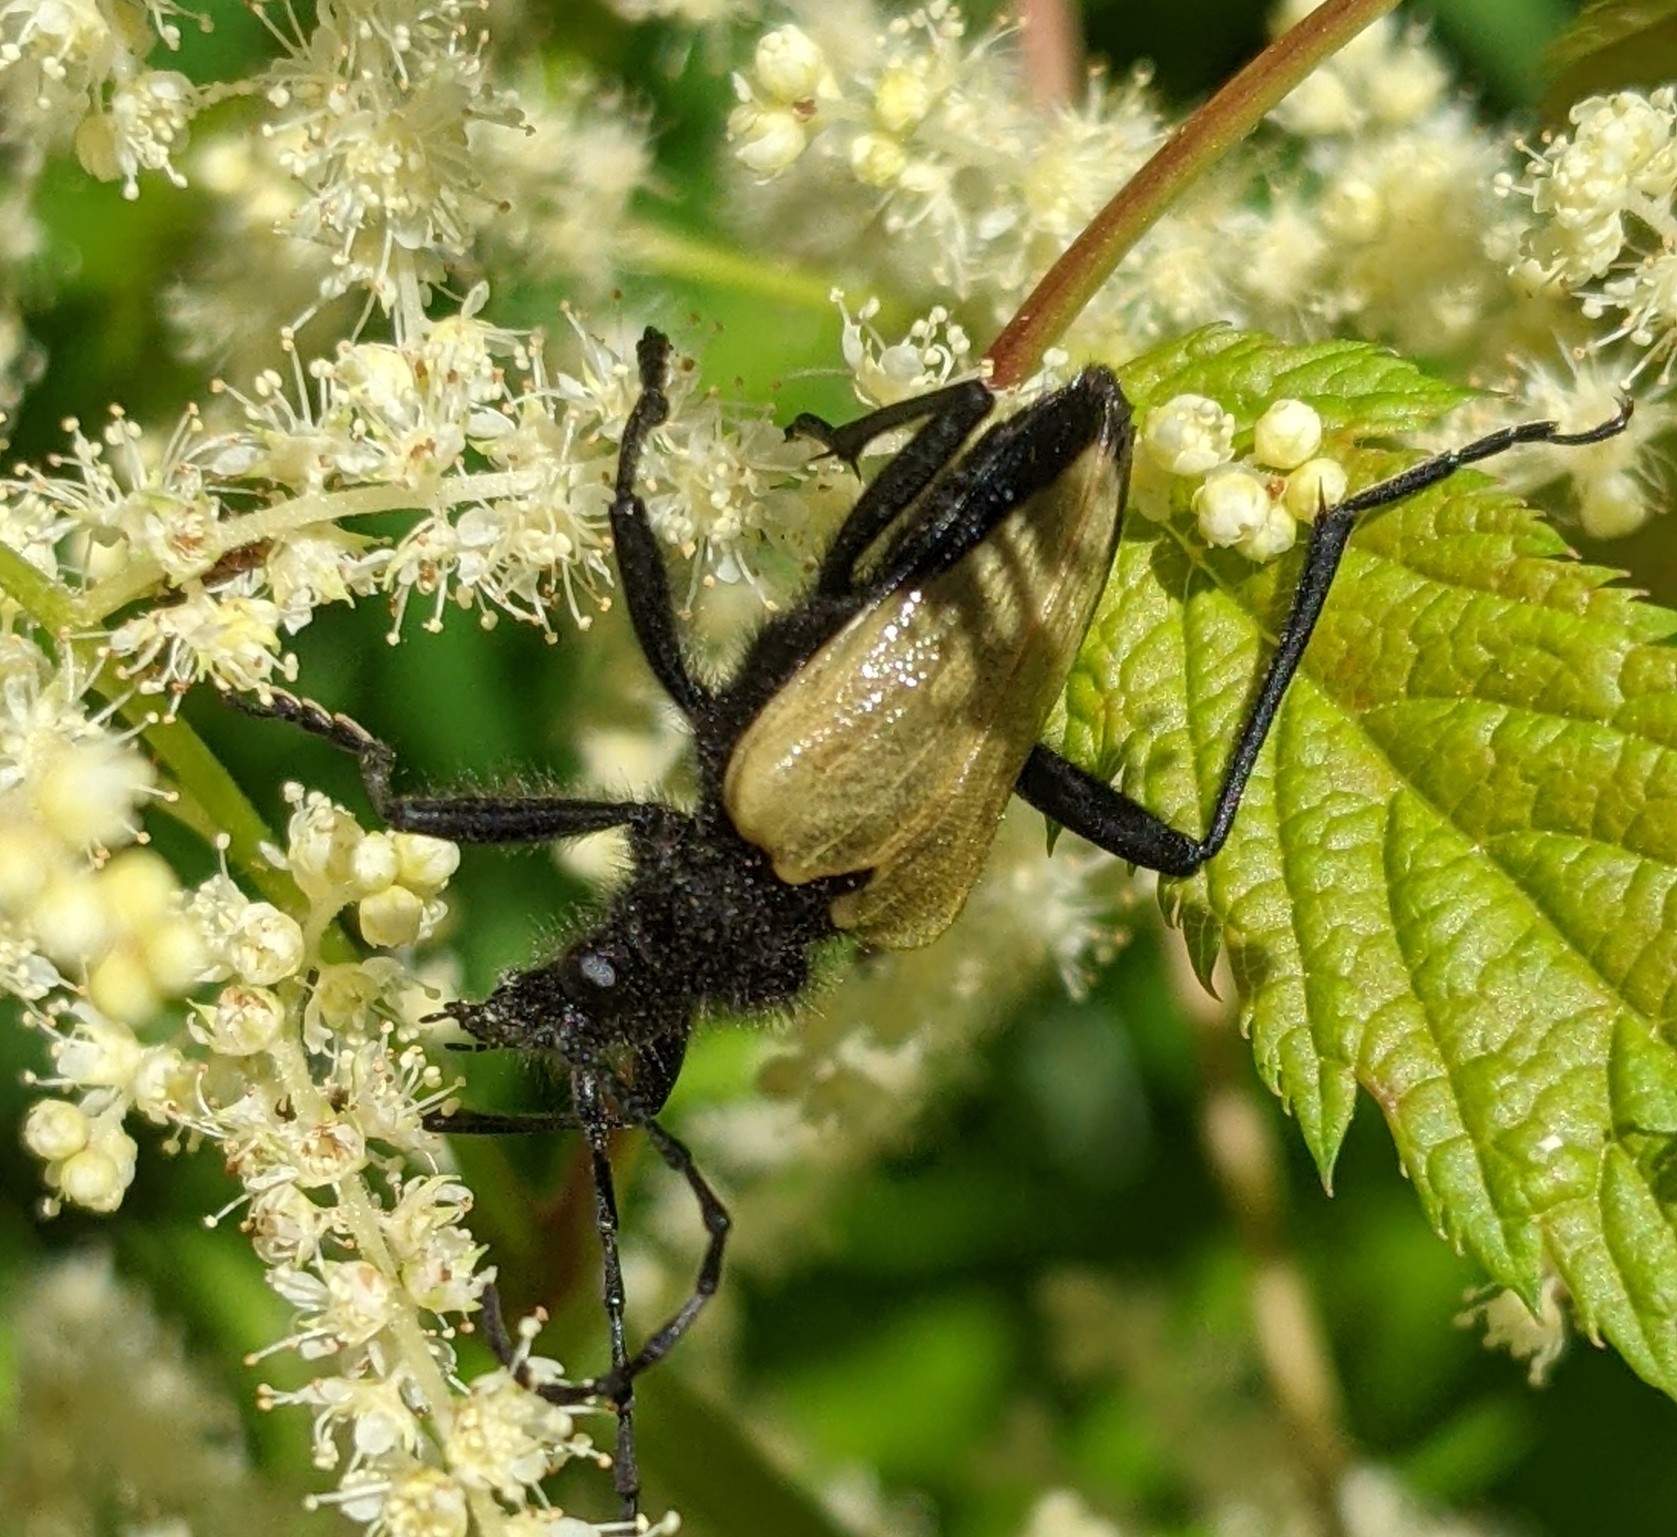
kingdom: Animalia
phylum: Arthropoda
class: Insecta
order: Coleoptera
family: Cerambycidae
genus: Pachyta
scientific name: Pachyta armata
